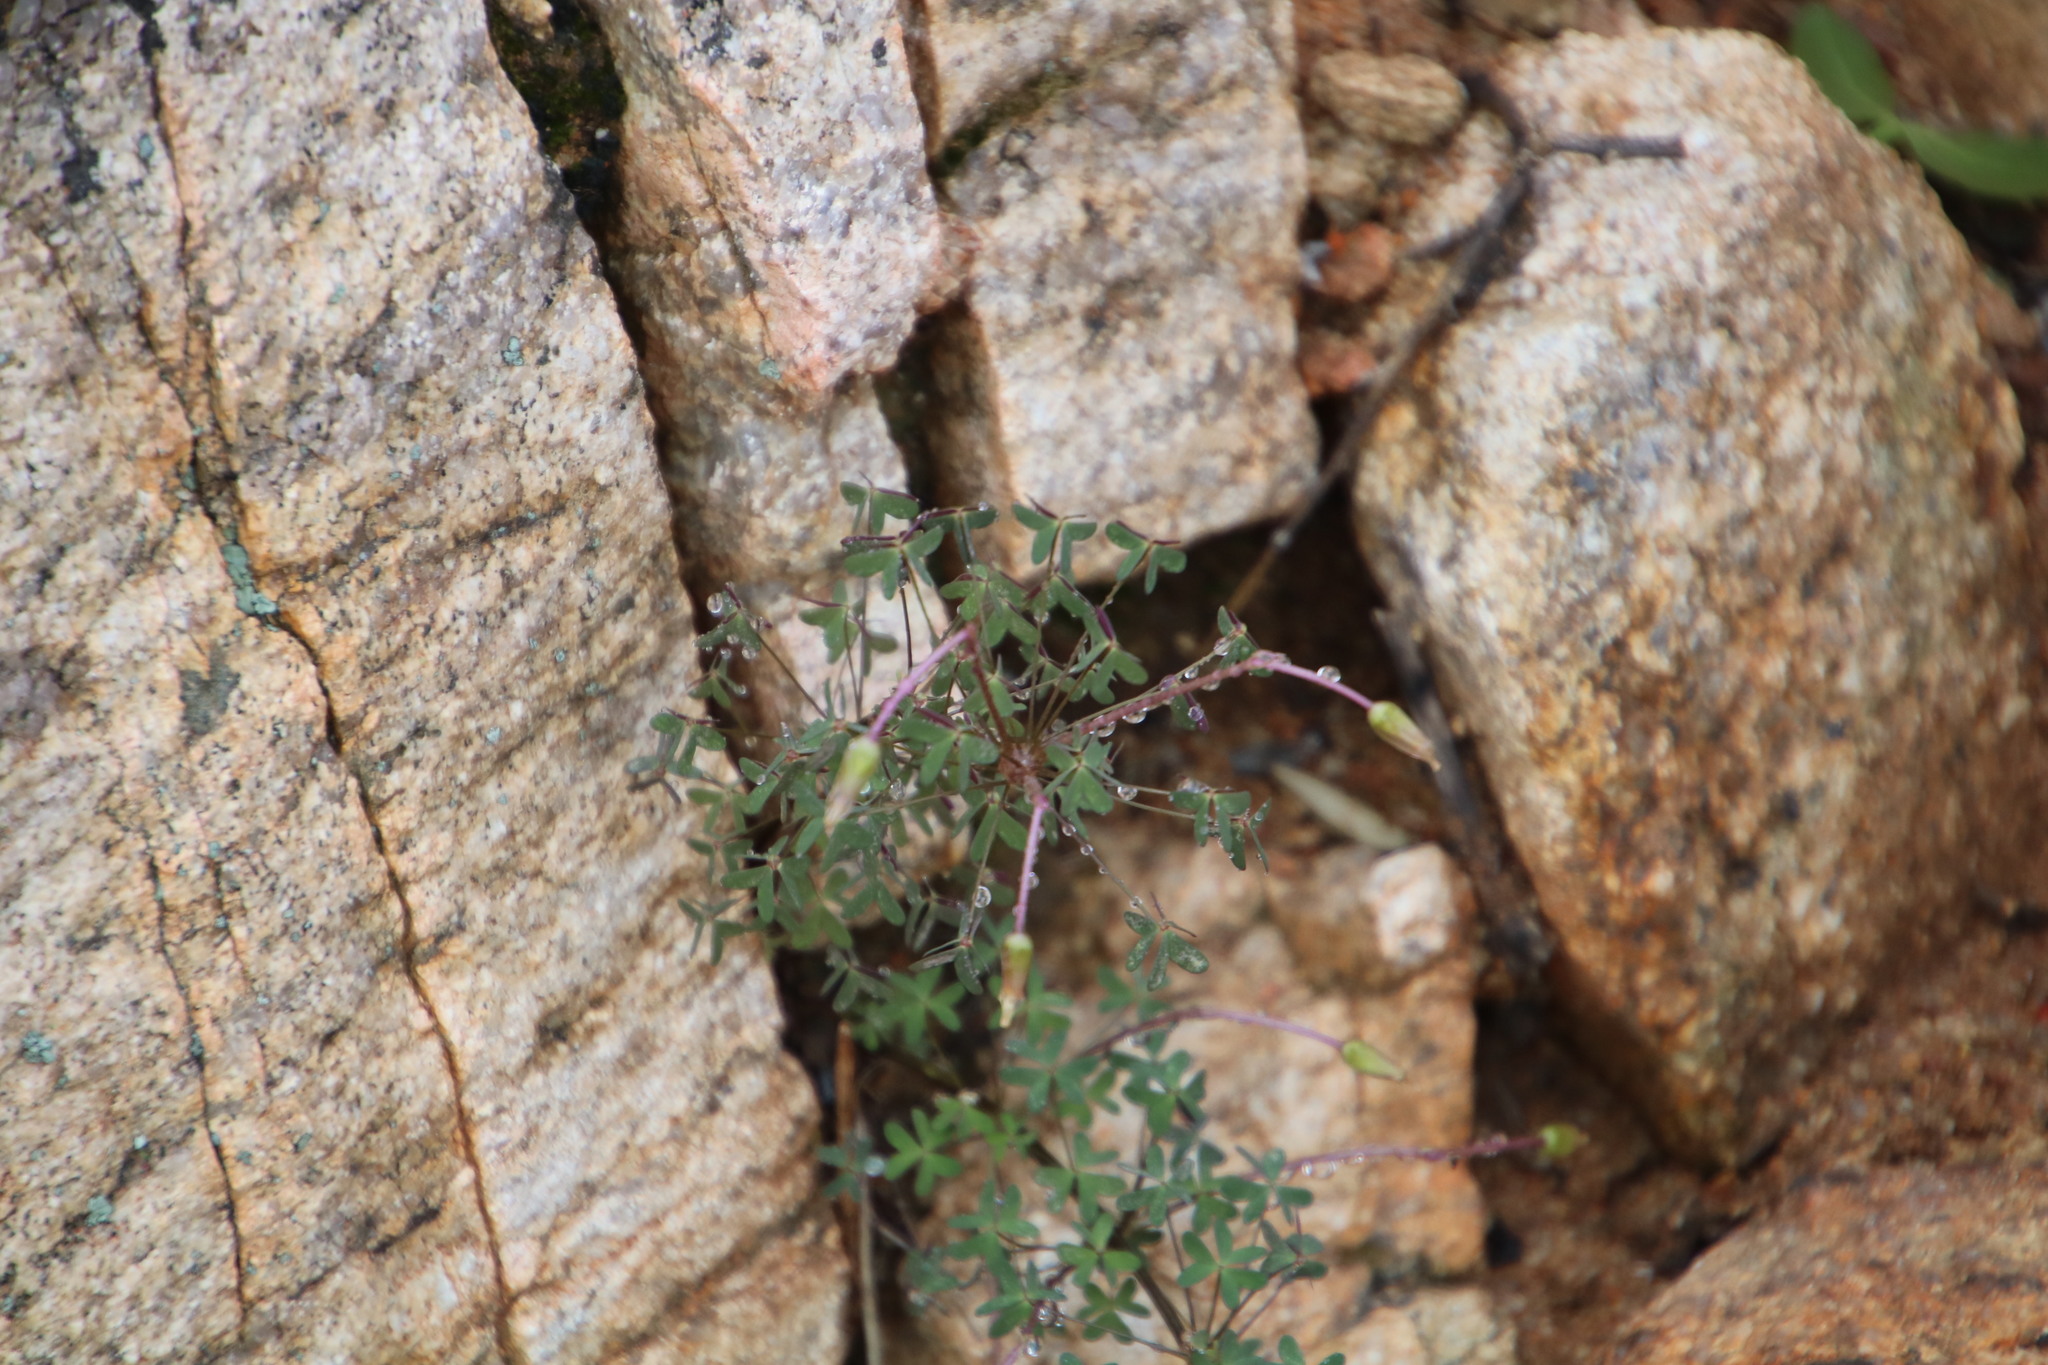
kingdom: Plantae
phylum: Tracheophyta
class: Magnoliopsida
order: Oxalidales
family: Oxalidaceae
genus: Oxalis
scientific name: Oxalis comosa
